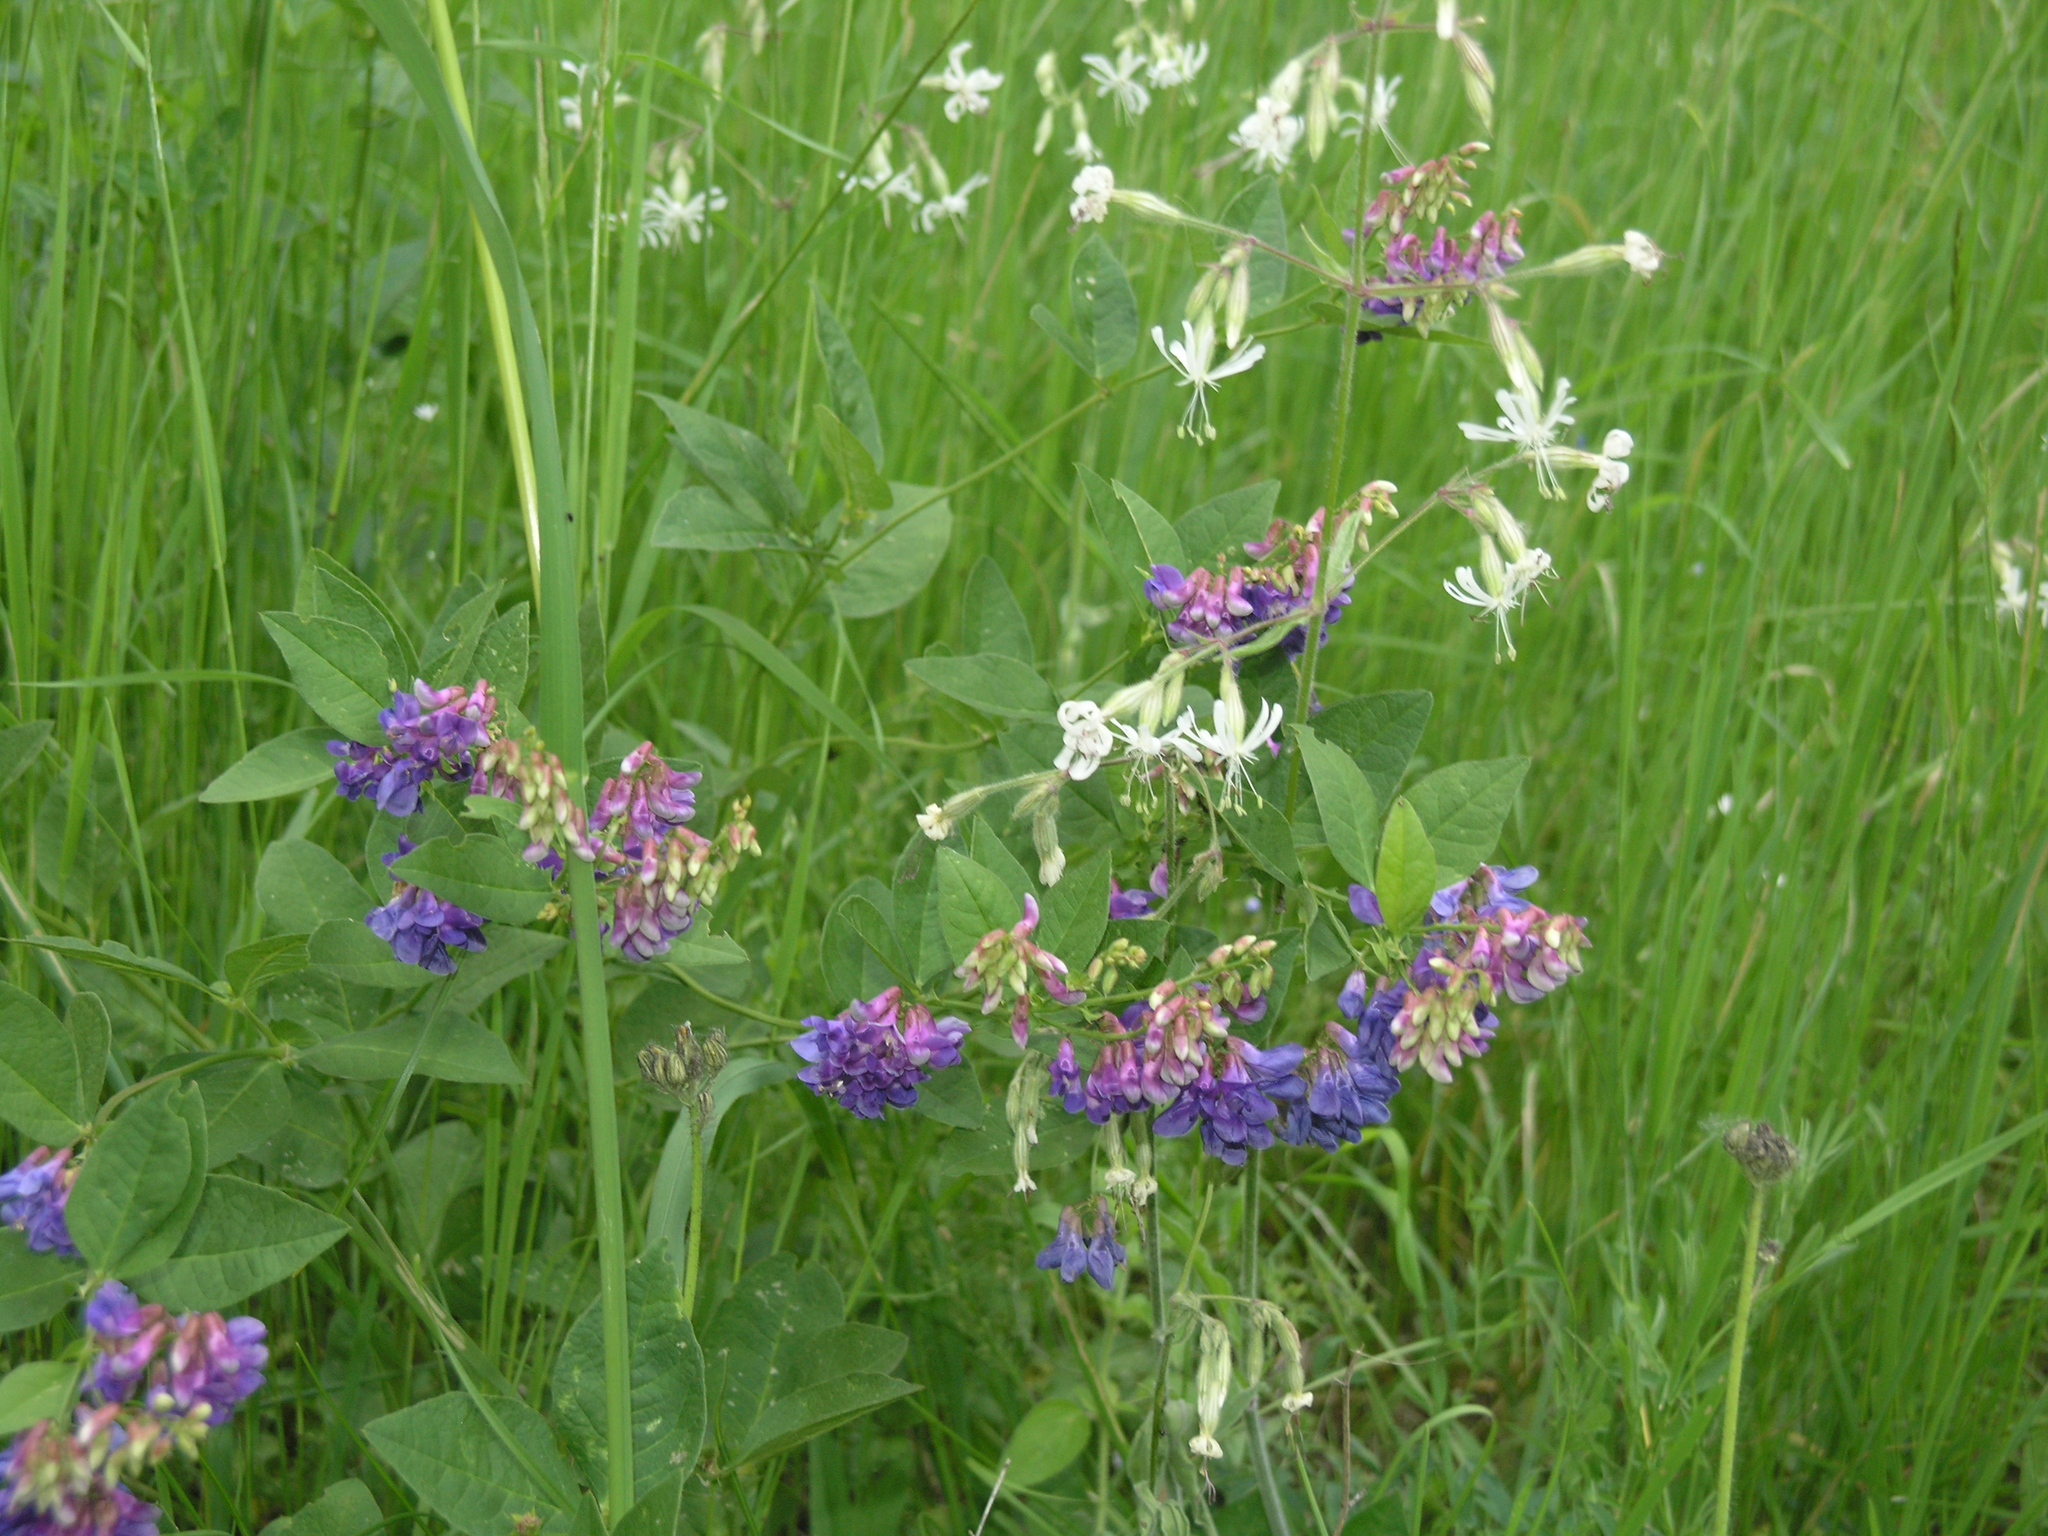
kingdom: Plantae
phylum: Tracheophyta
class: Magnoliopsida
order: Caryophyllales
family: Caryophyllaceae
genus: Silene
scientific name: Silene nutans
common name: Nottingham catchfly
